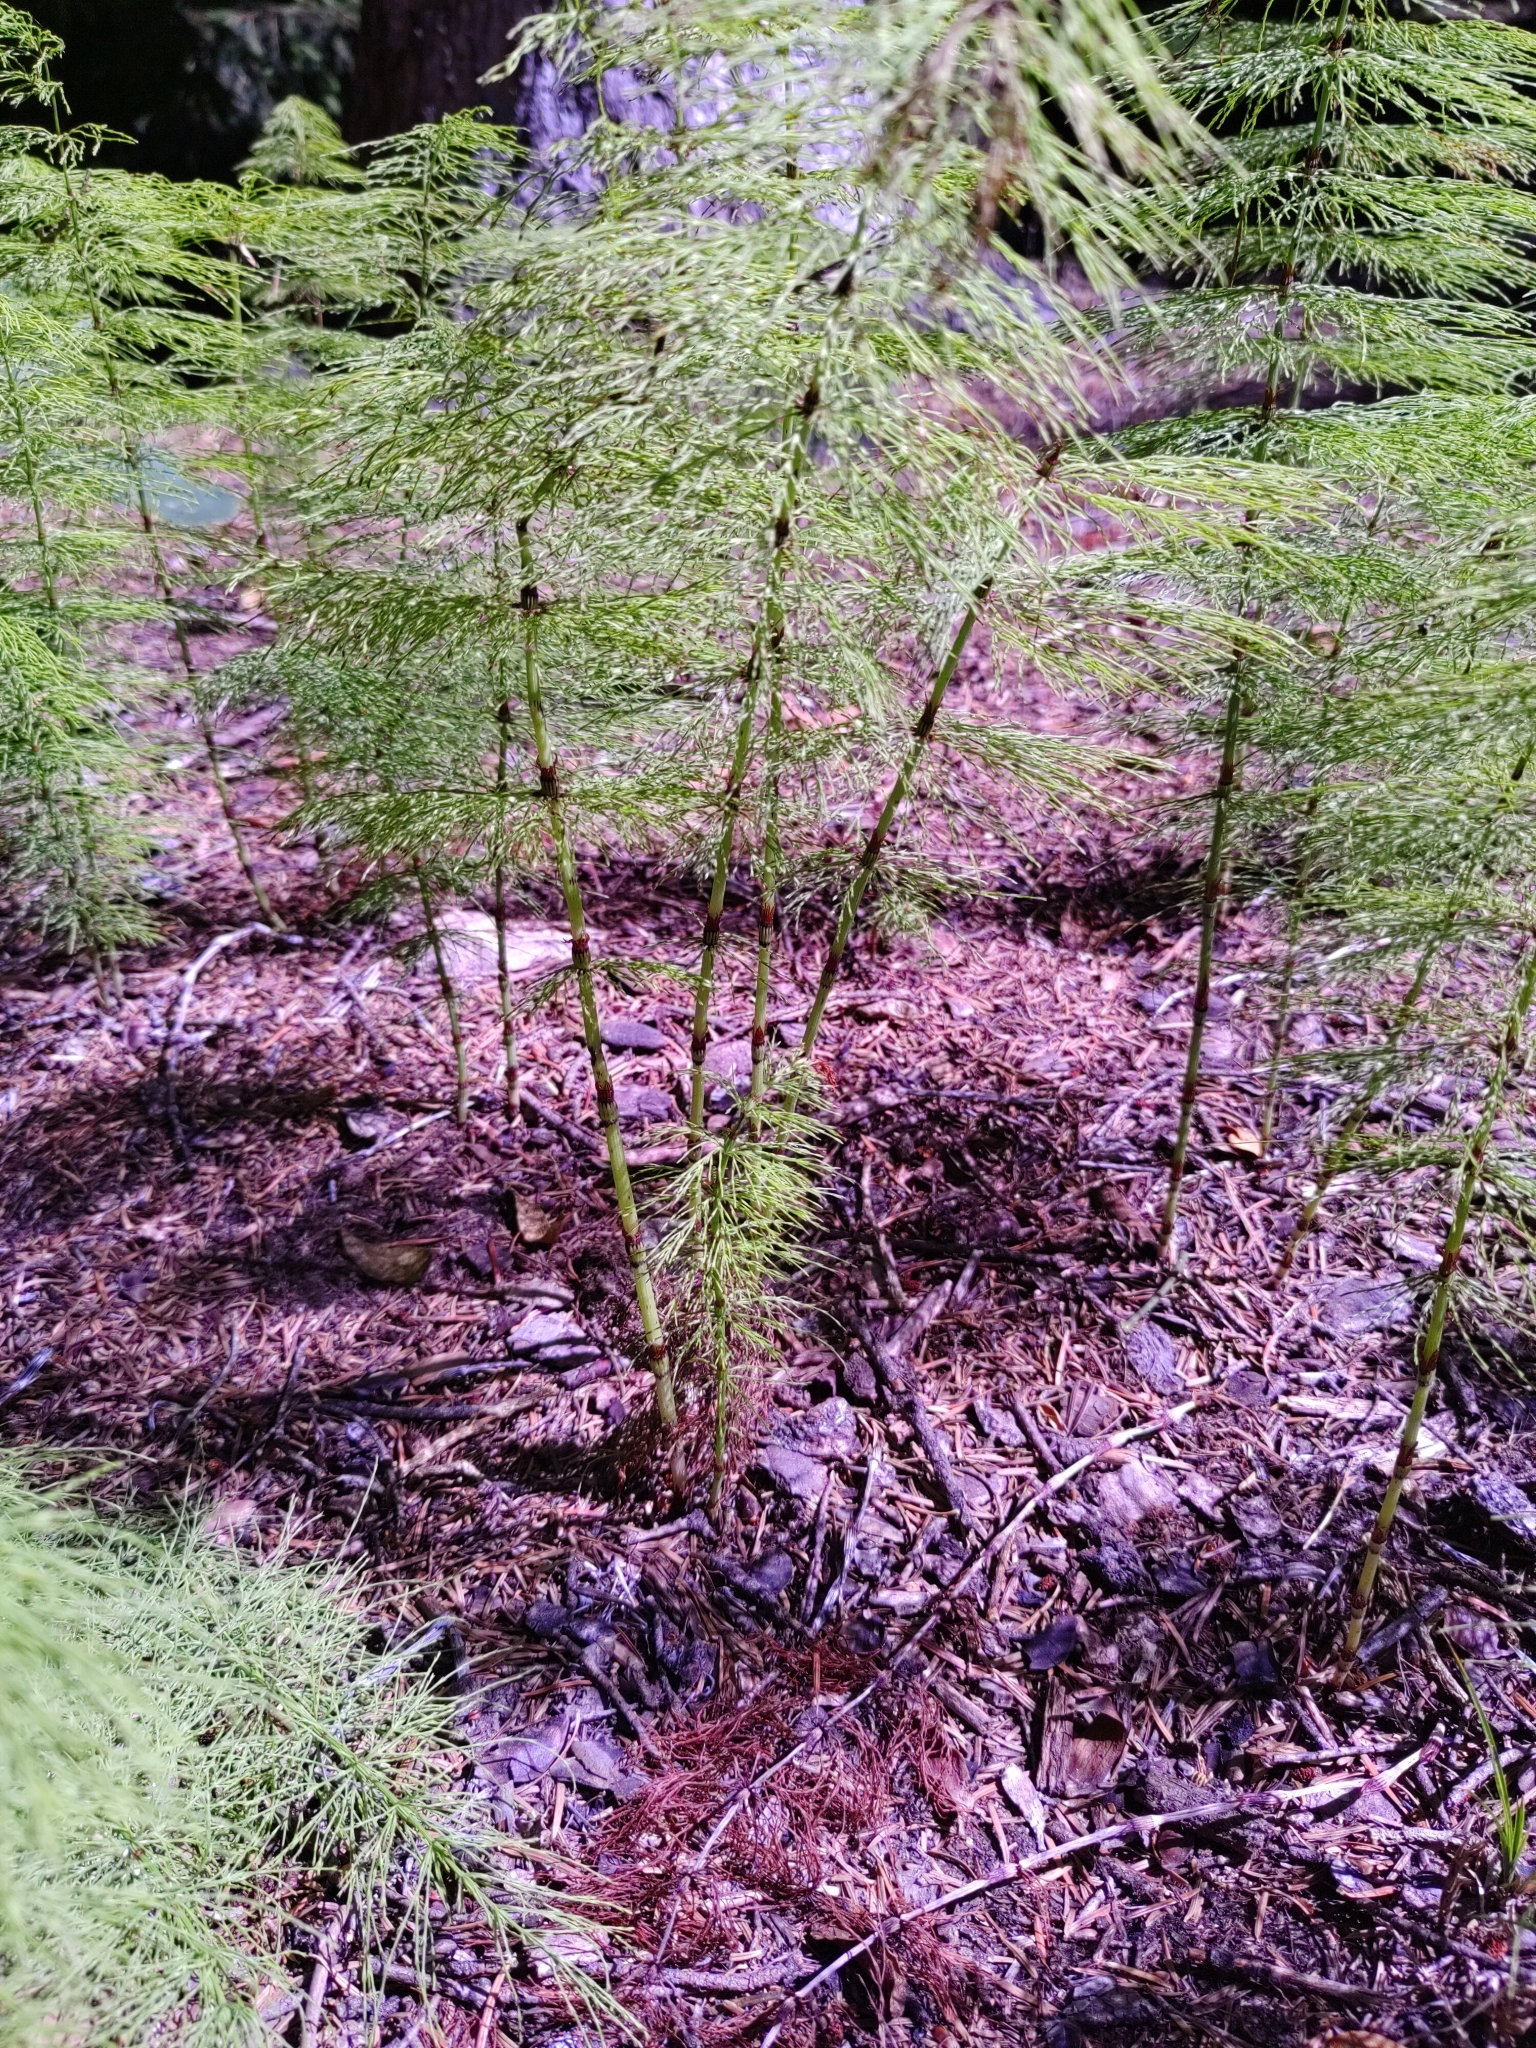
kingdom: Plantae
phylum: Tracheophyta
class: Polypodiopsida
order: Equisetales
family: Equisetaceae
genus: Equisetum
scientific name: Equisetum sylvaticum
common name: Wood horsetail
